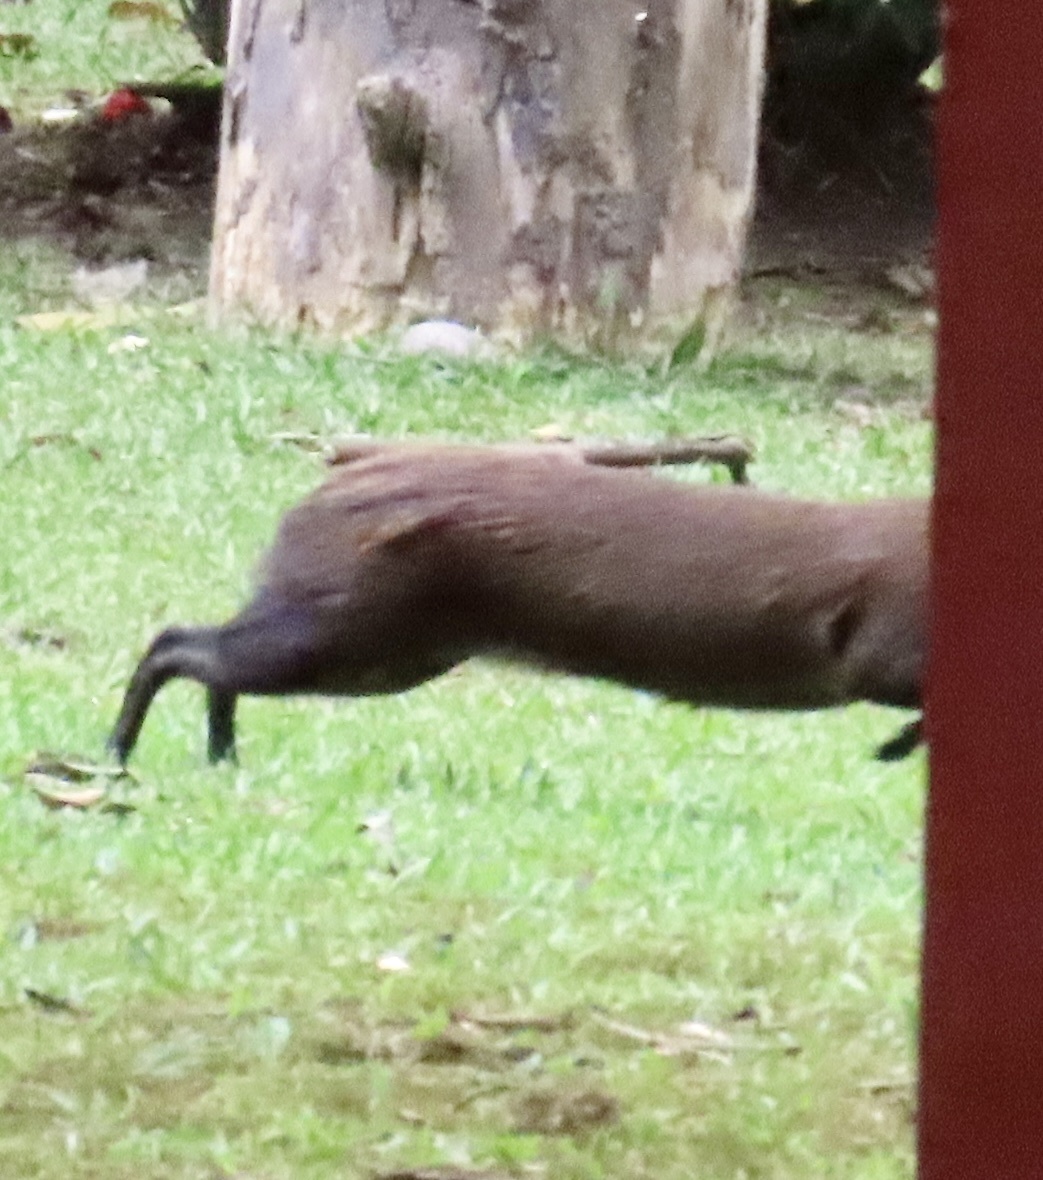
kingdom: Animalia
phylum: Chordata
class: Mammalia
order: Rodentia
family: Dasyproctidae
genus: Dasyprocta
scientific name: Dasyprocta punctata
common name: Central american agouti
